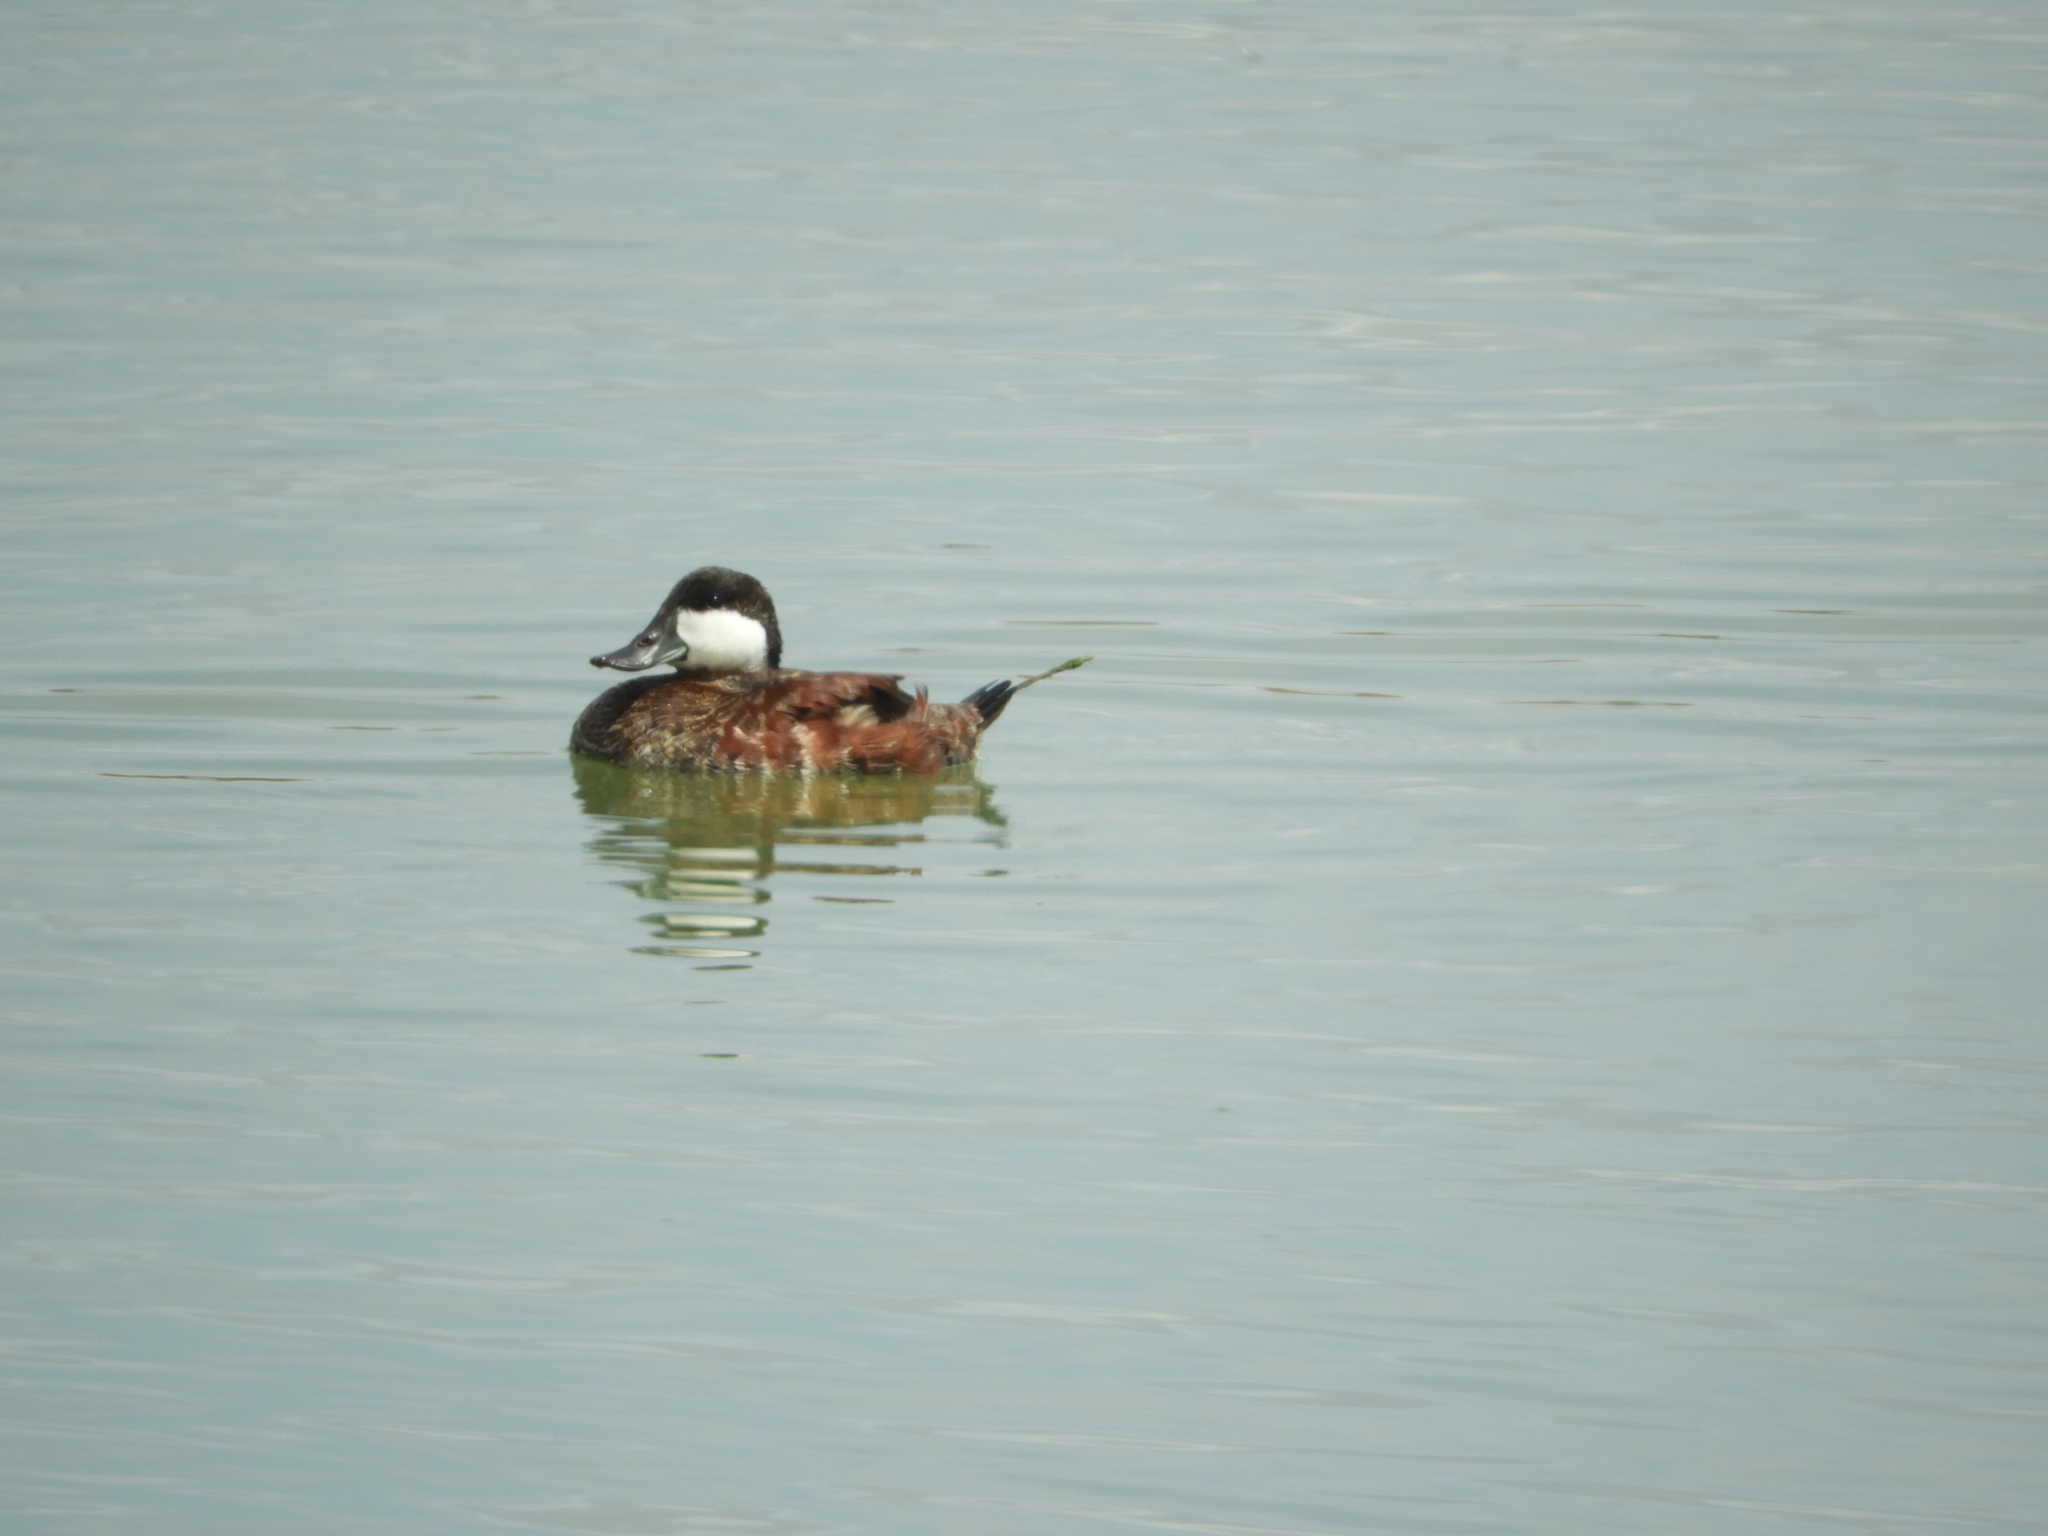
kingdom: Animalia
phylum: Chordata
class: Aves
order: Anseriformes
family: Anatidae
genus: Oxyura
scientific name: Oxyura jamaicensis
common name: Ruddy duck
